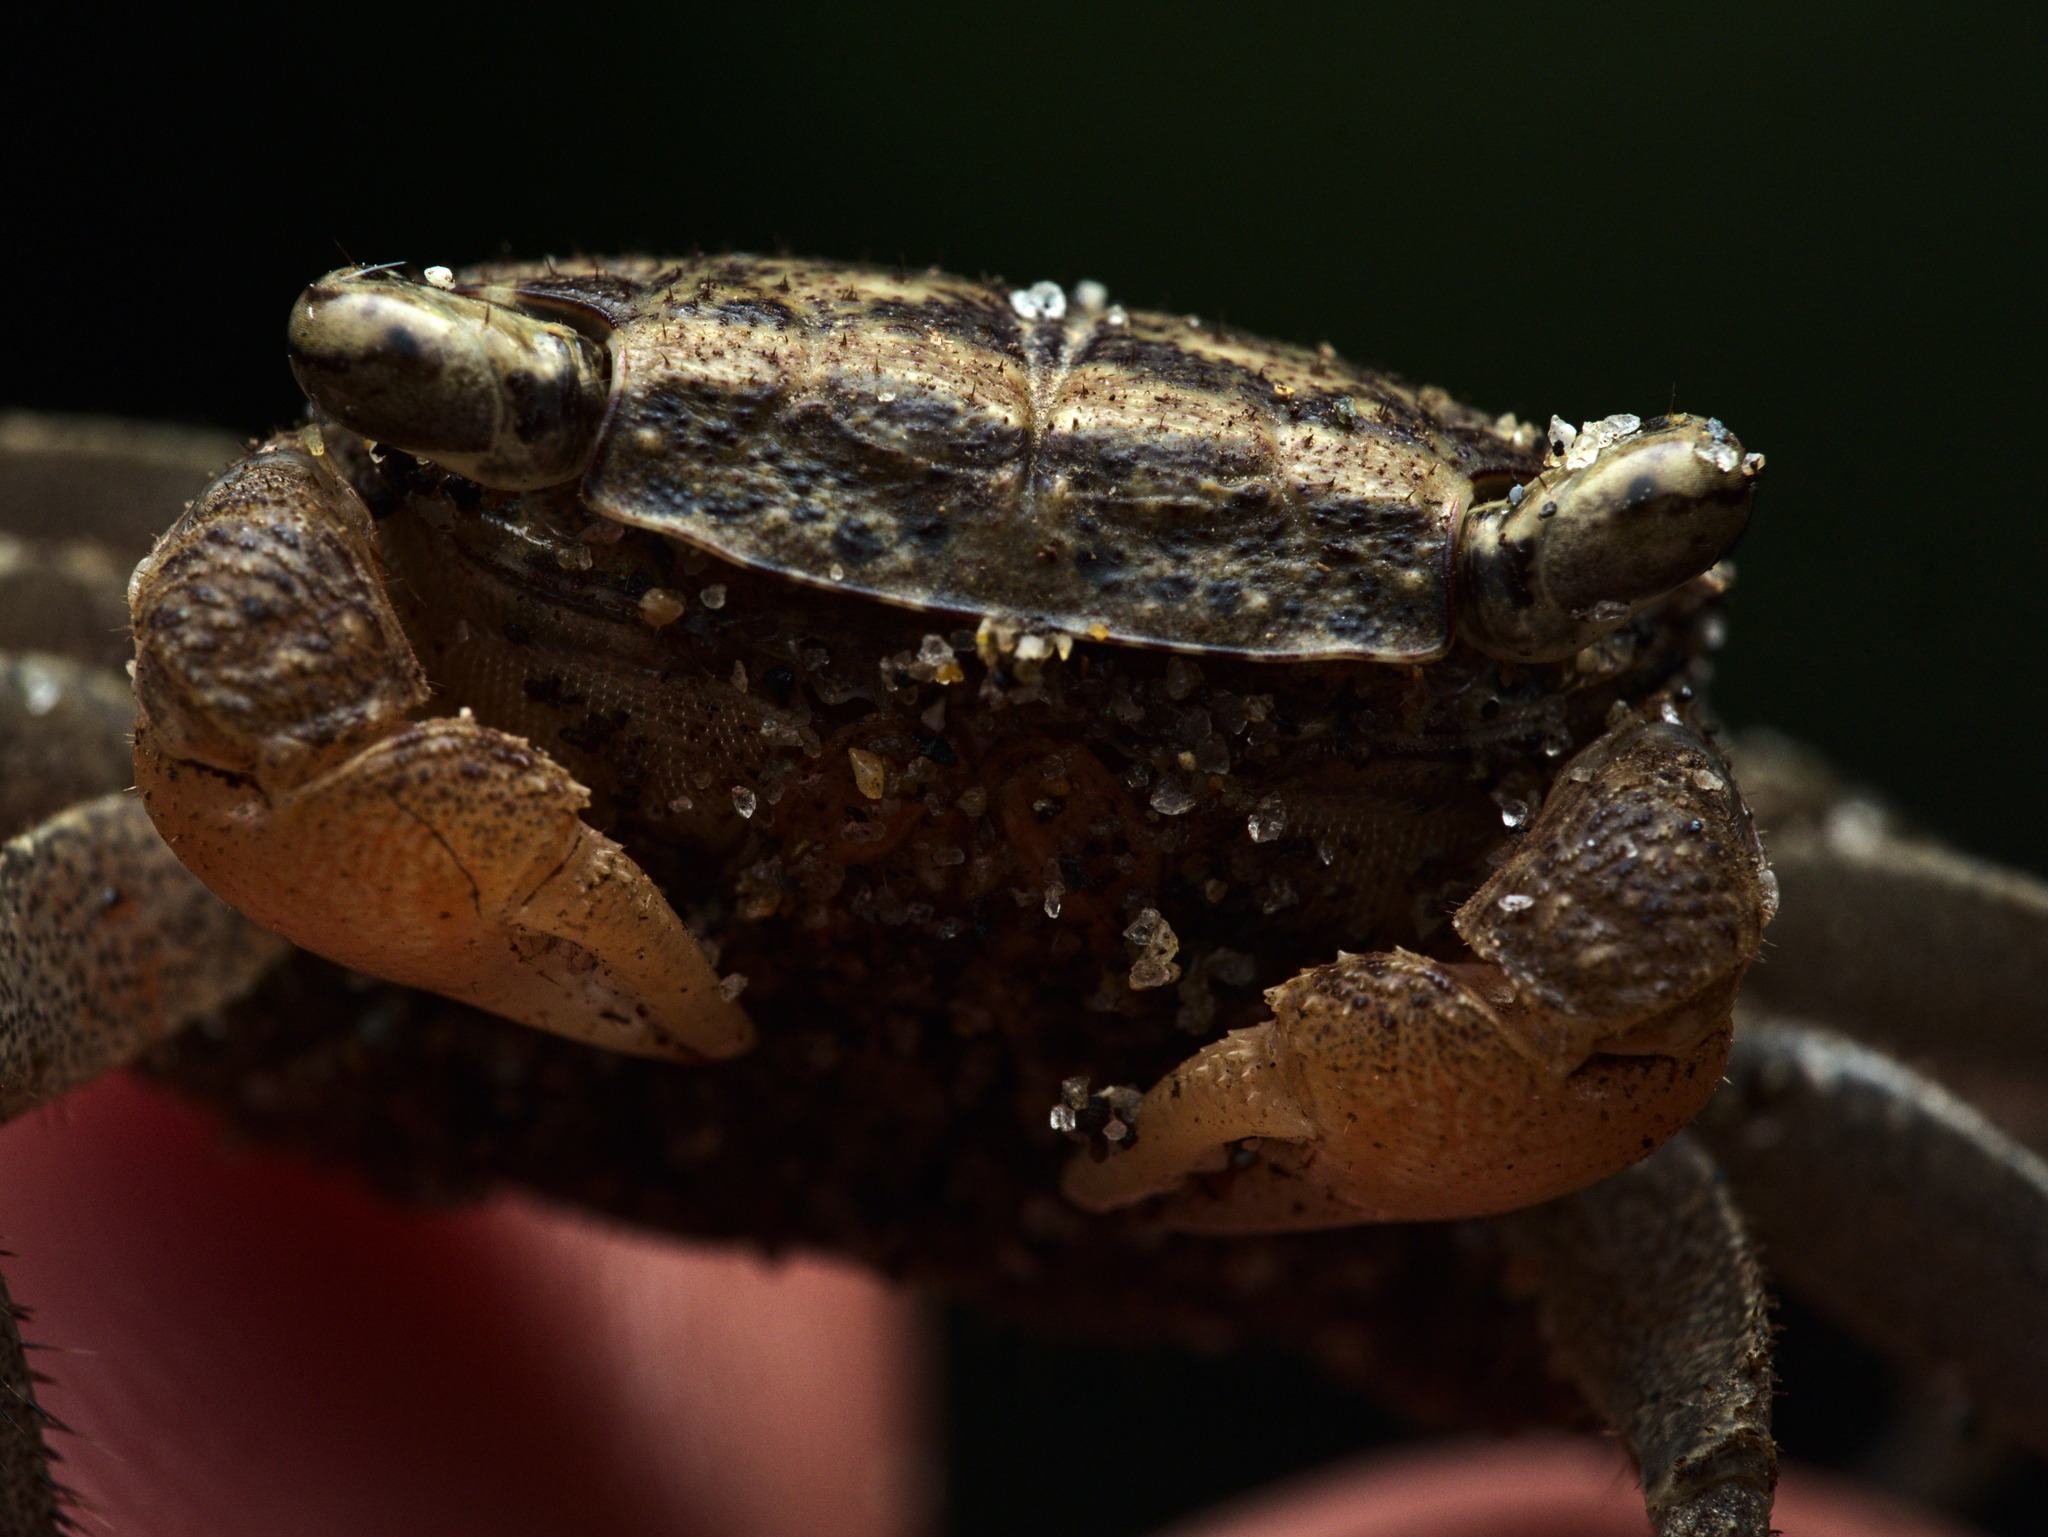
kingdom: Animalia
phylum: Arthropoda
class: Malacostraca
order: Decapoda
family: Sesarmidae
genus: Armases
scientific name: Armases occidentale
